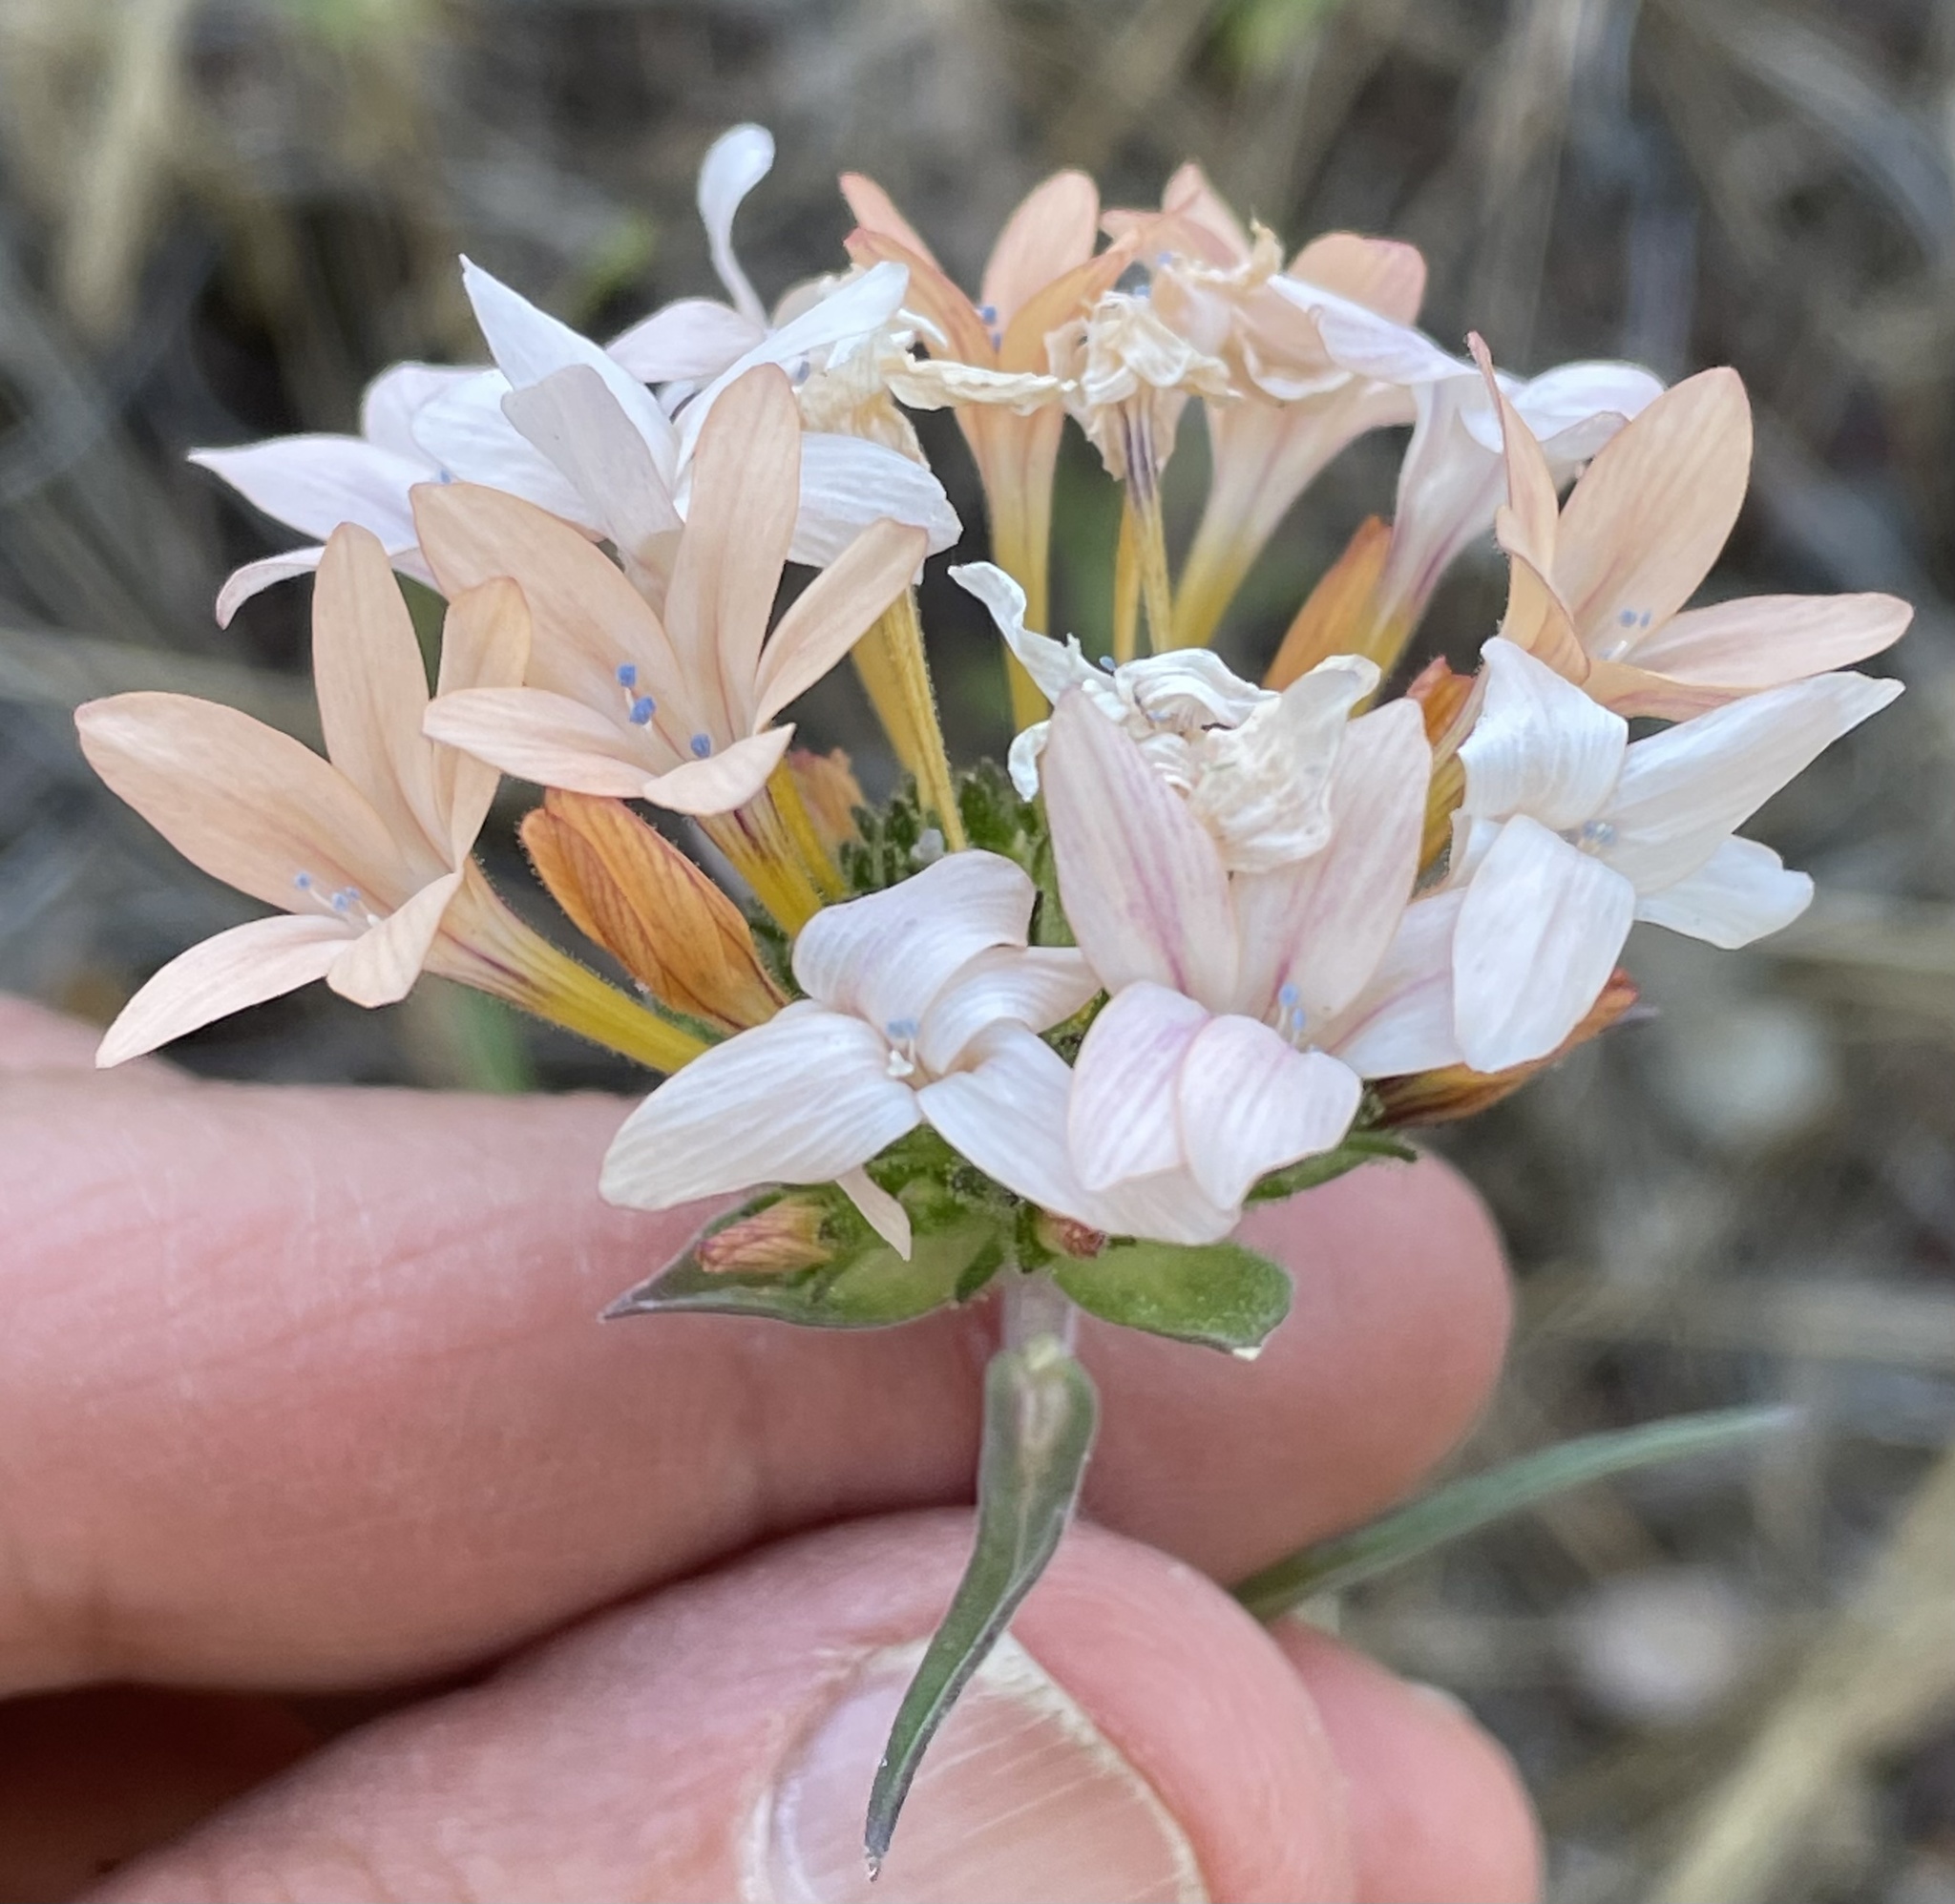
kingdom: Plantae
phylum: Tracheophyta
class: Magnoliopsida
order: Ericales
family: Polemoniaceae
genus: Collomia
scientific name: Collomia grandiflora
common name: California strawflower
